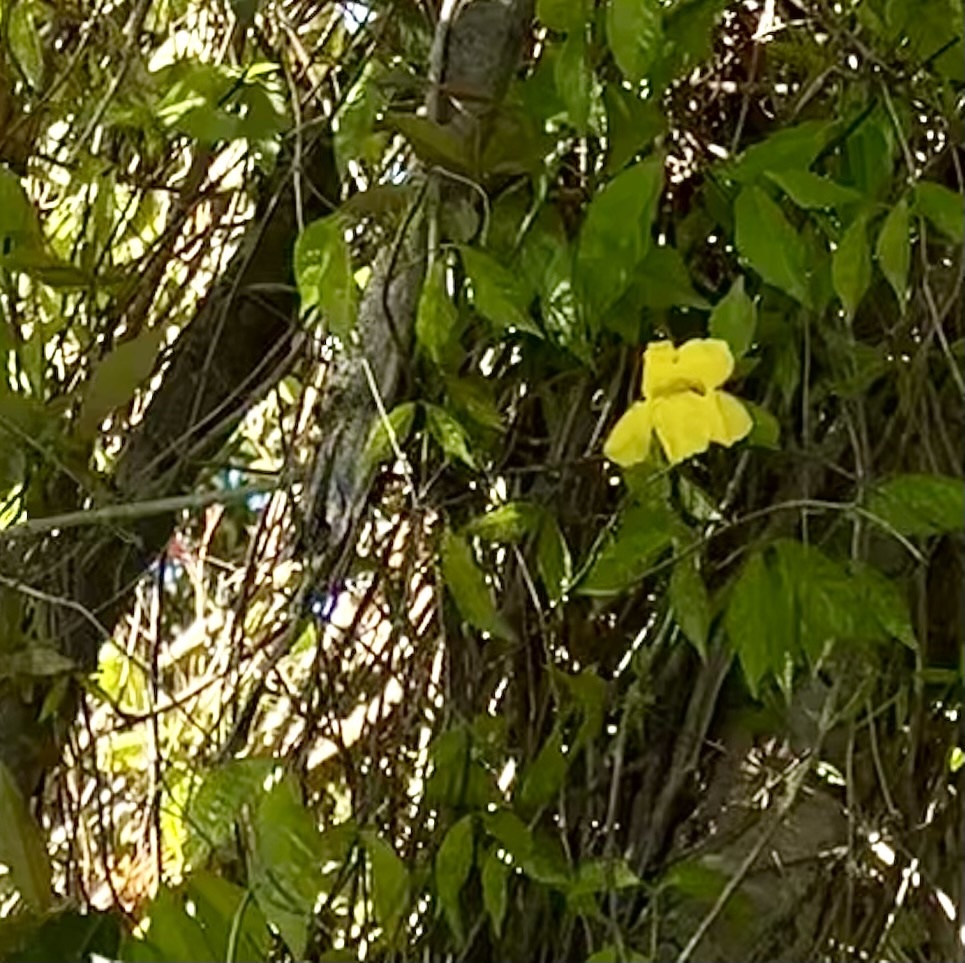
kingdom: Plantae
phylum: Tracheophyta
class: Magnoliopsida
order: Lamiales
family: Bignoniaceae
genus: Dolichandra
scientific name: Dolichandra unguis-cati
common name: Catclaw vine
